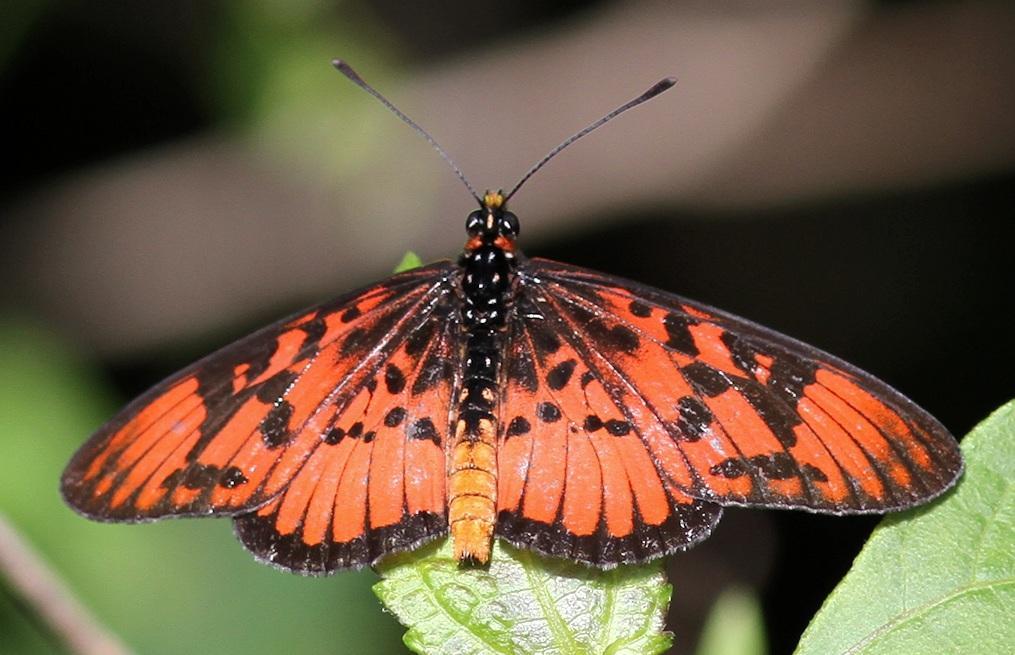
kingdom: Animalia
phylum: Arthropoda
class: Insecta
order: Lepidoptera
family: Nymphalidae
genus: Rubraea
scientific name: Rubraea
